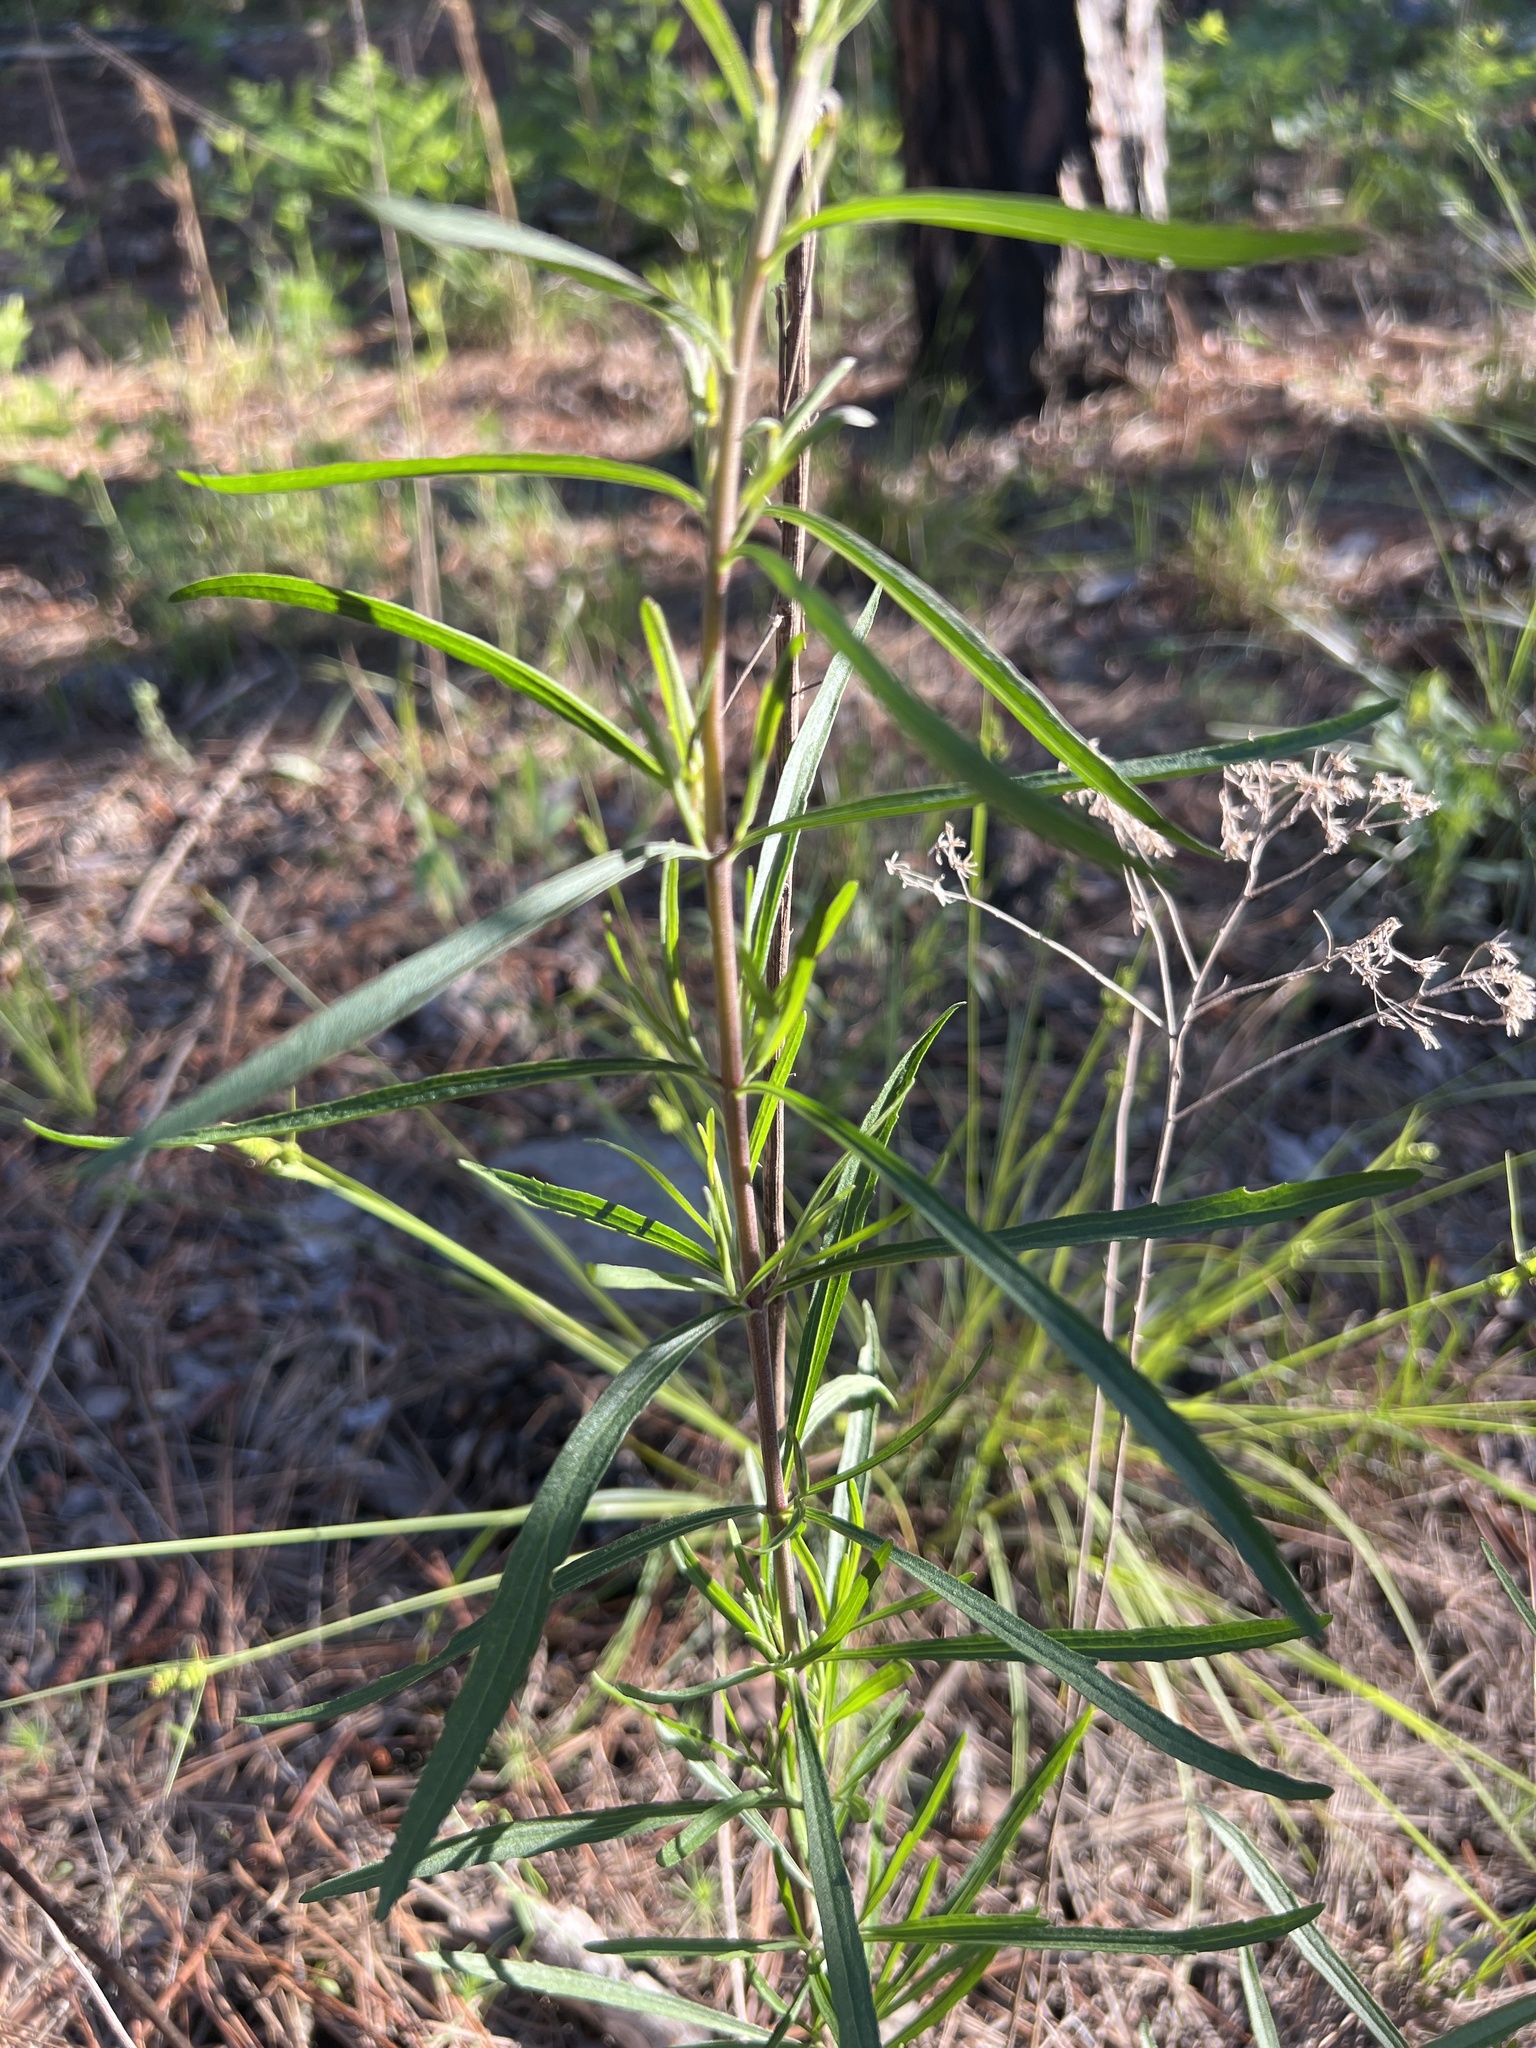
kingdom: Plantae
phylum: Tracheophyta
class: Magnoliopsida
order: Asterales
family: Asteraceae
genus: Eupatorium
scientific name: Eupatorium torreyanum
